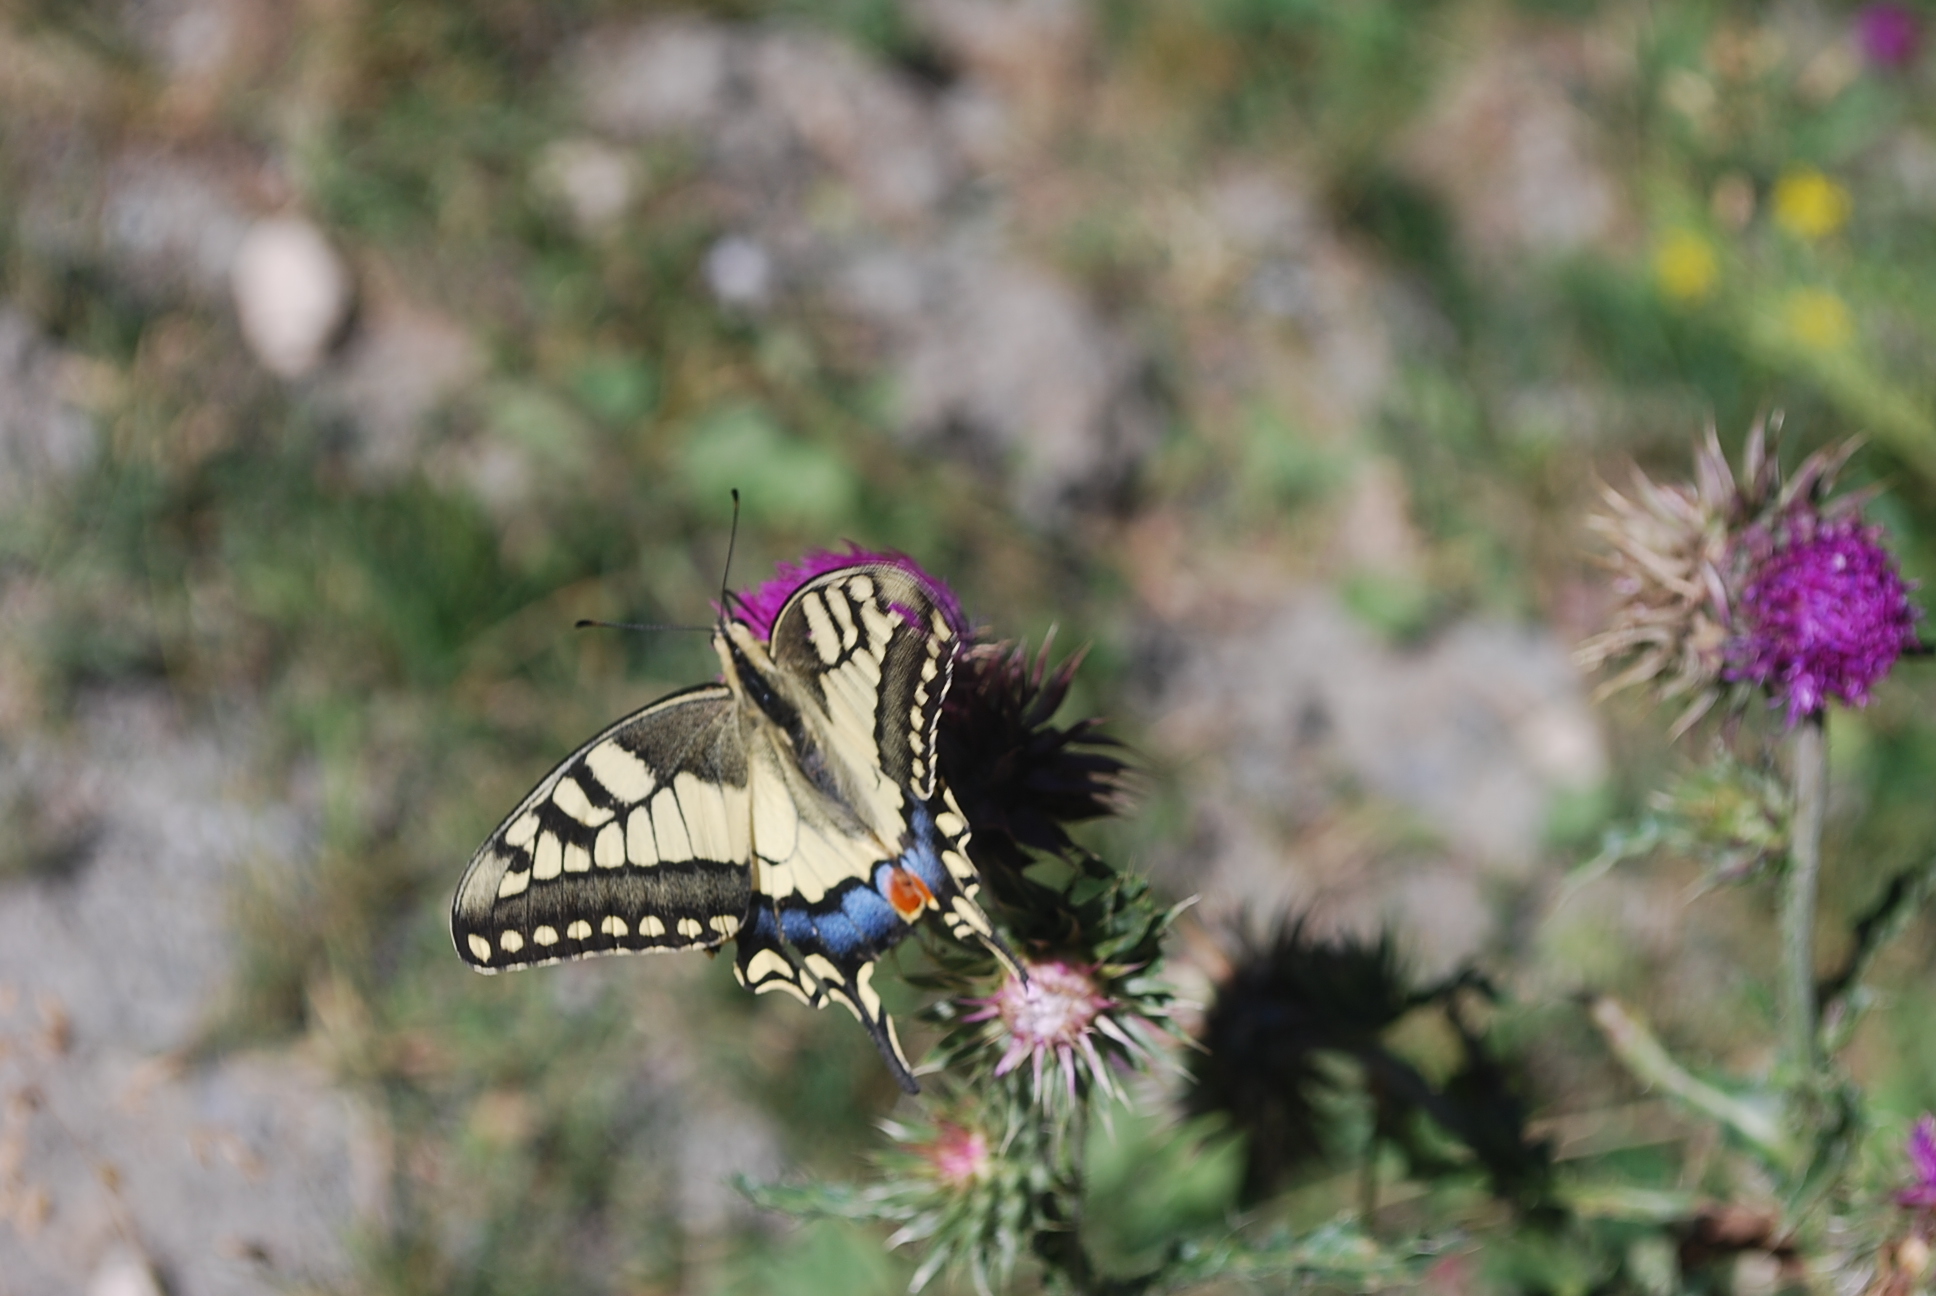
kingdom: Animalia
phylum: Arthropoda
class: Insecta
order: Lepidoptera
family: Papilionidae
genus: Papilio
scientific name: Papilio machaon
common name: Swallowtail
